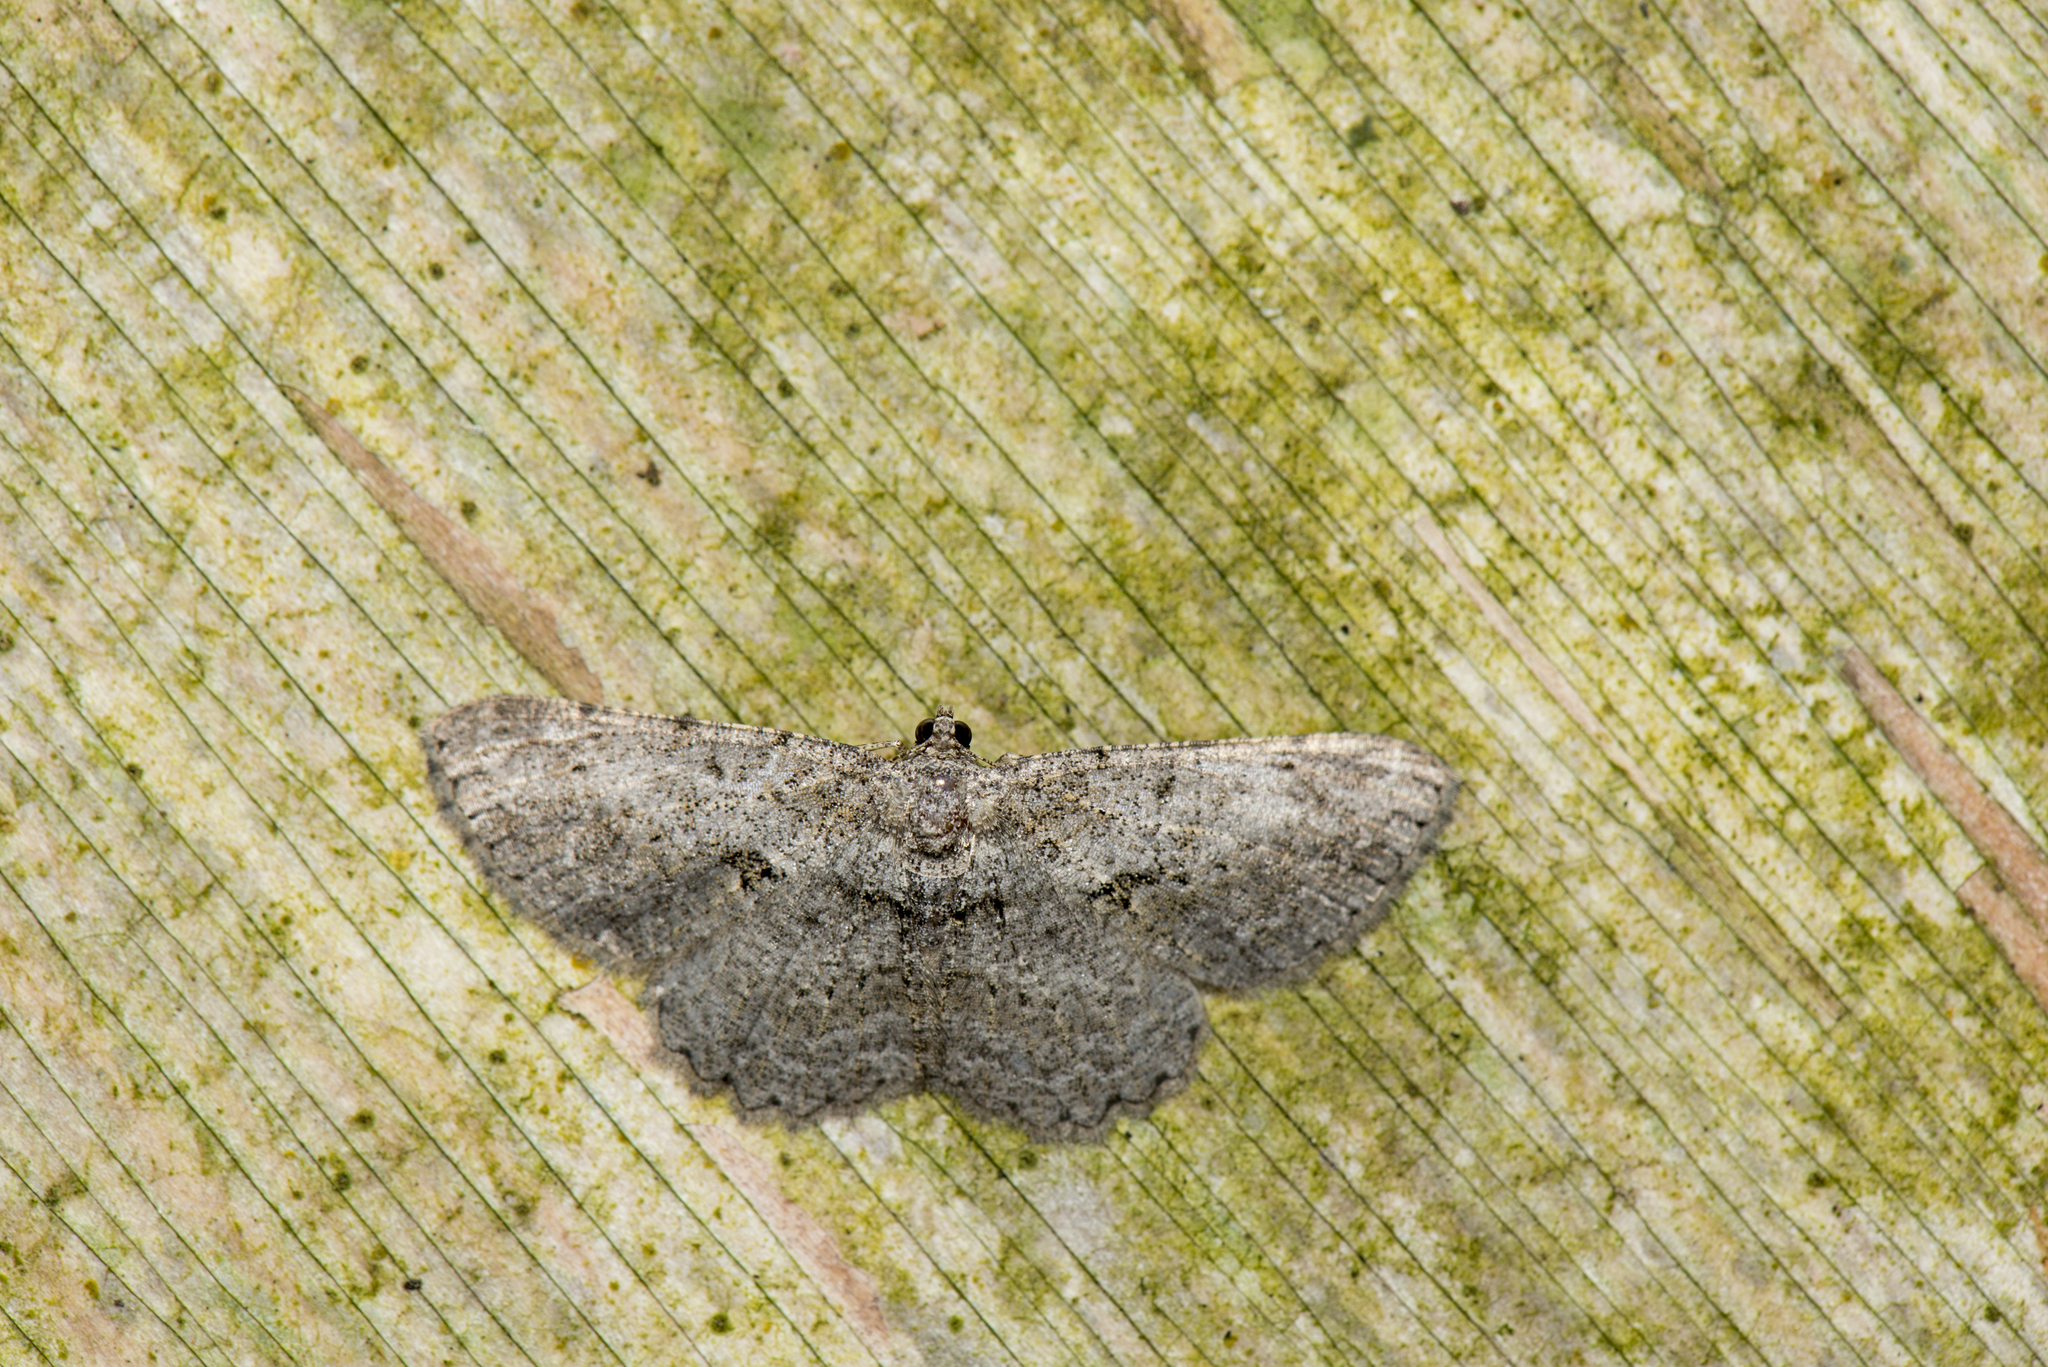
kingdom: Animalia
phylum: Arthropoda
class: Insecta
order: Lepidoptera
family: Geometridae
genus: Psilalcis
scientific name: Psilalcis breta
